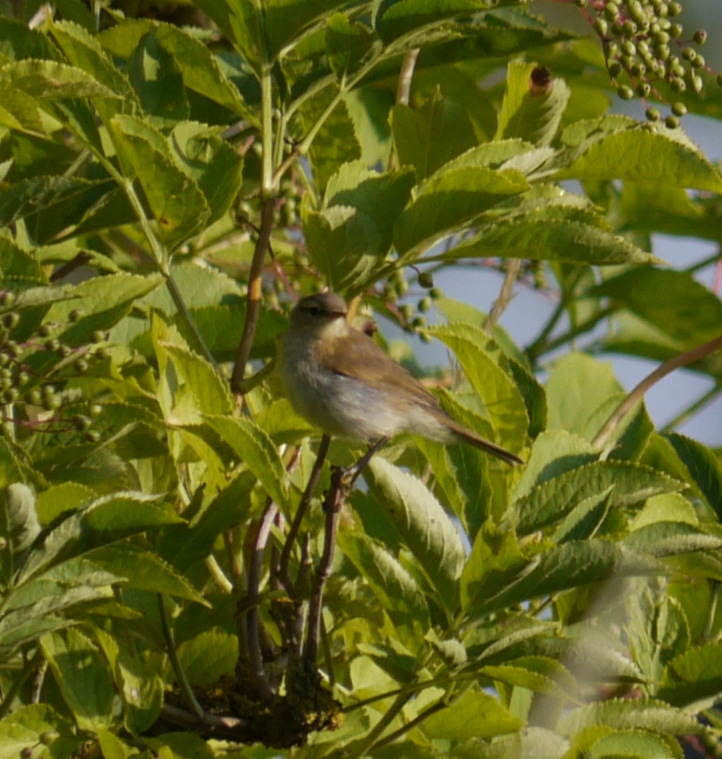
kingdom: Animalia
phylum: Chordata
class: Aves
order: Passeriformes
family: Phylloscopidae
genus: Phylloscopus
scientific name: Phylloscopus collybita
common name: Common chiffchaff
